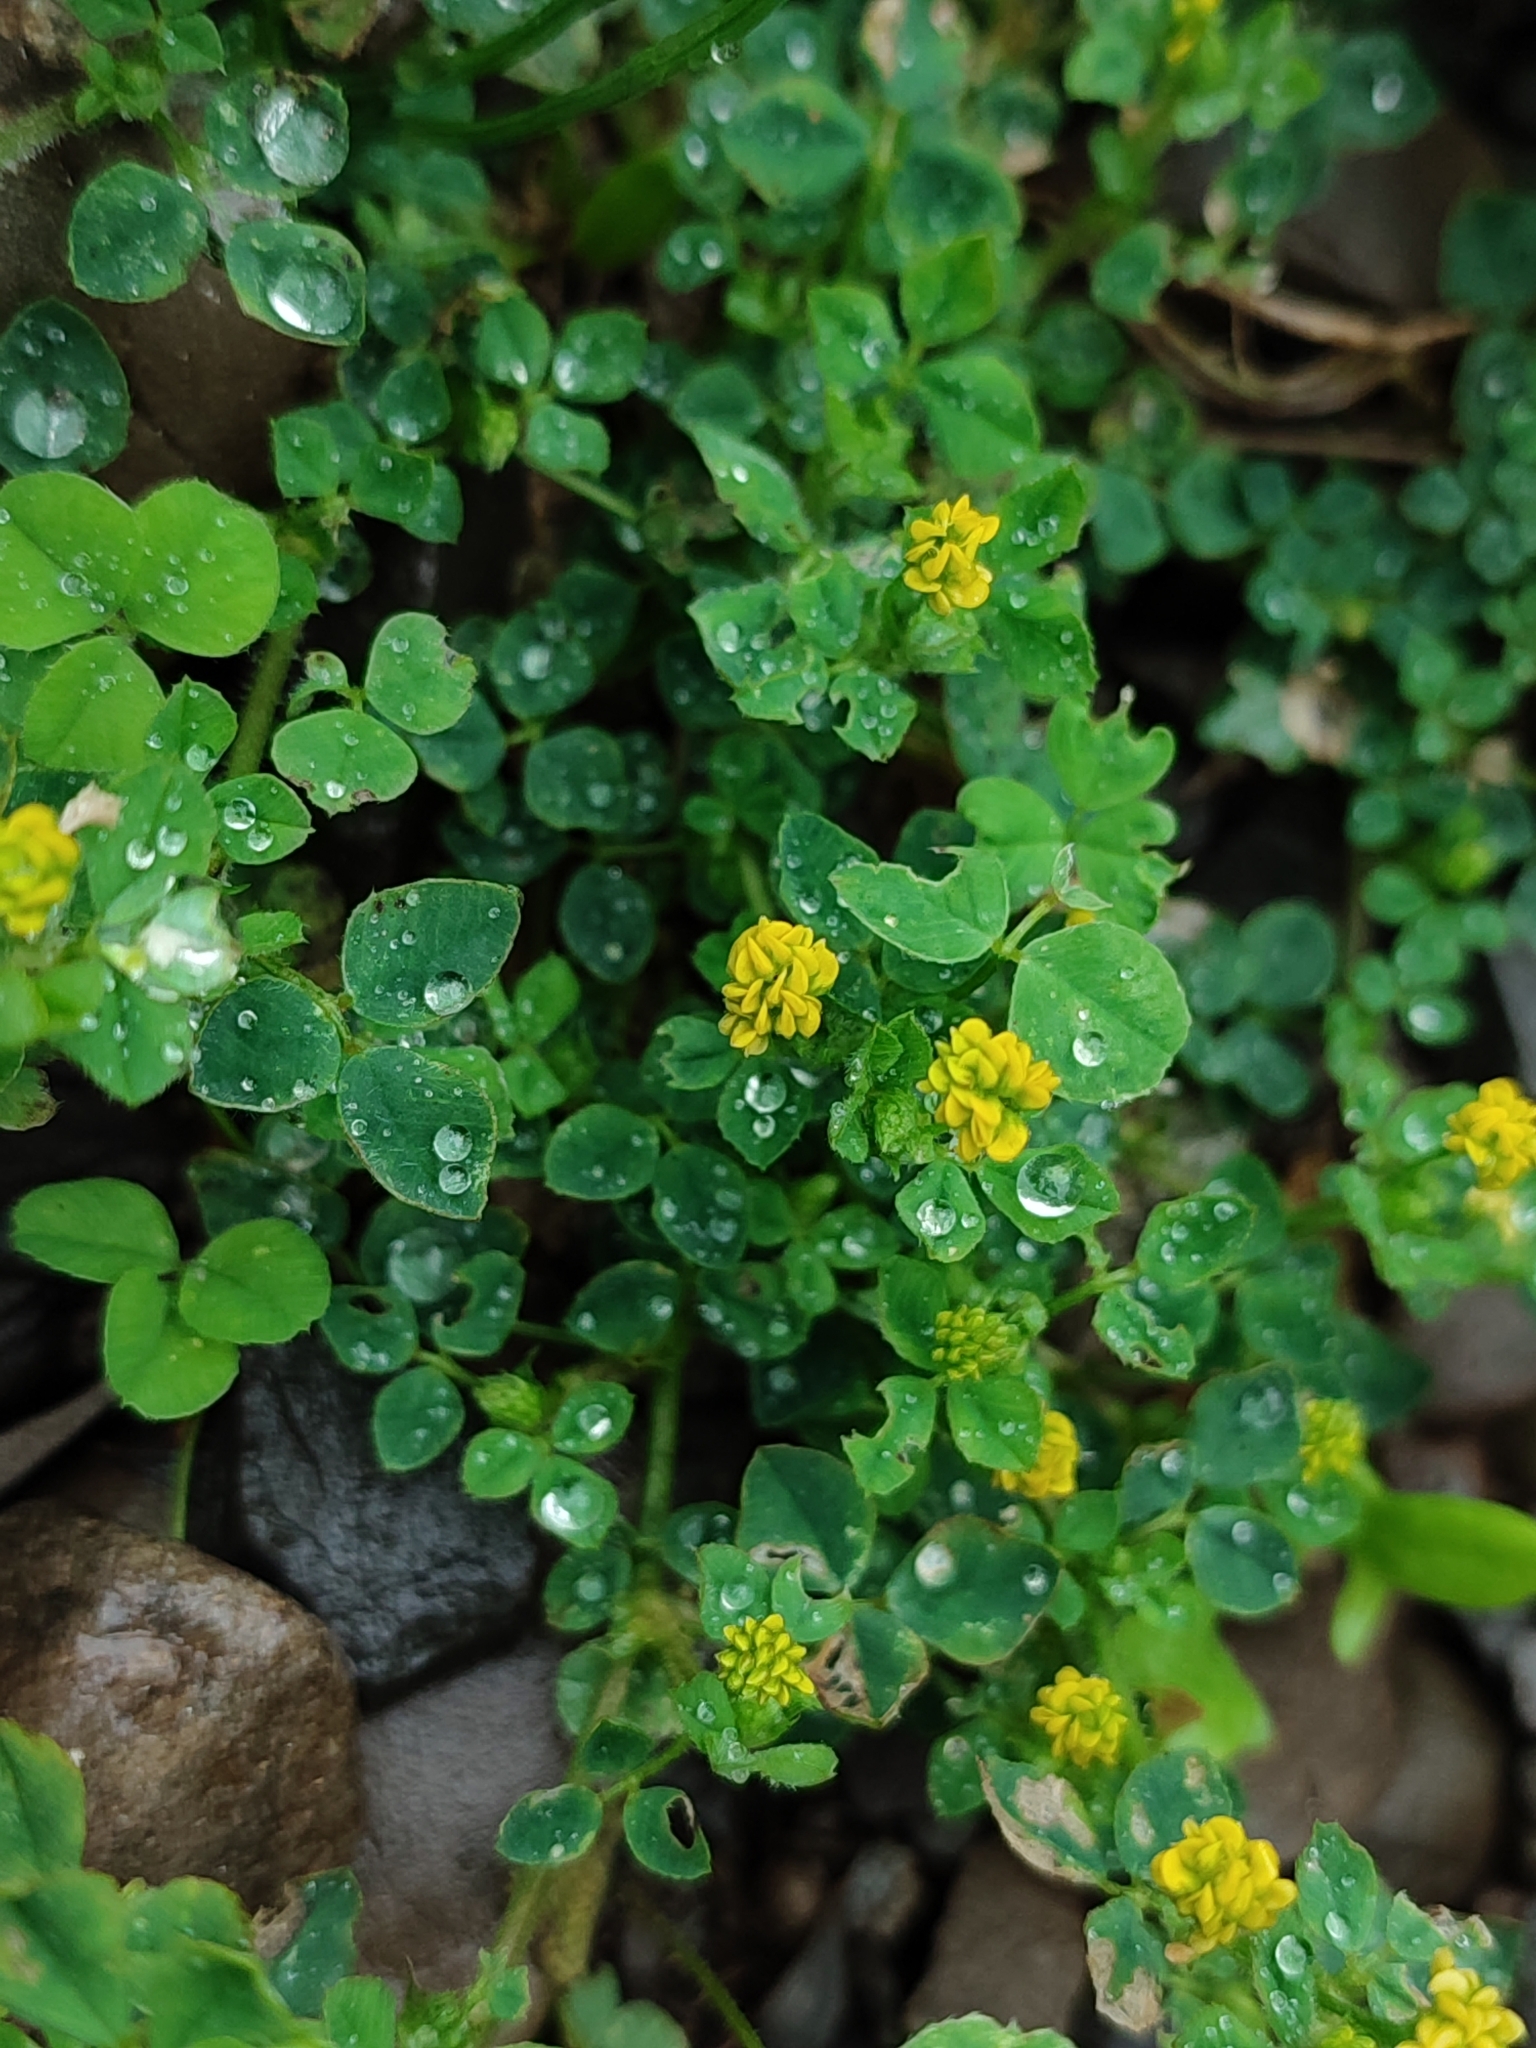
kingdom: Plantae
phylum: Tracheophyta
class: Magnoliopsida
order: Fabales
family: Fabaceae
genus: Medicago
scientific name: Medicago lupulina
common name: Black medick
